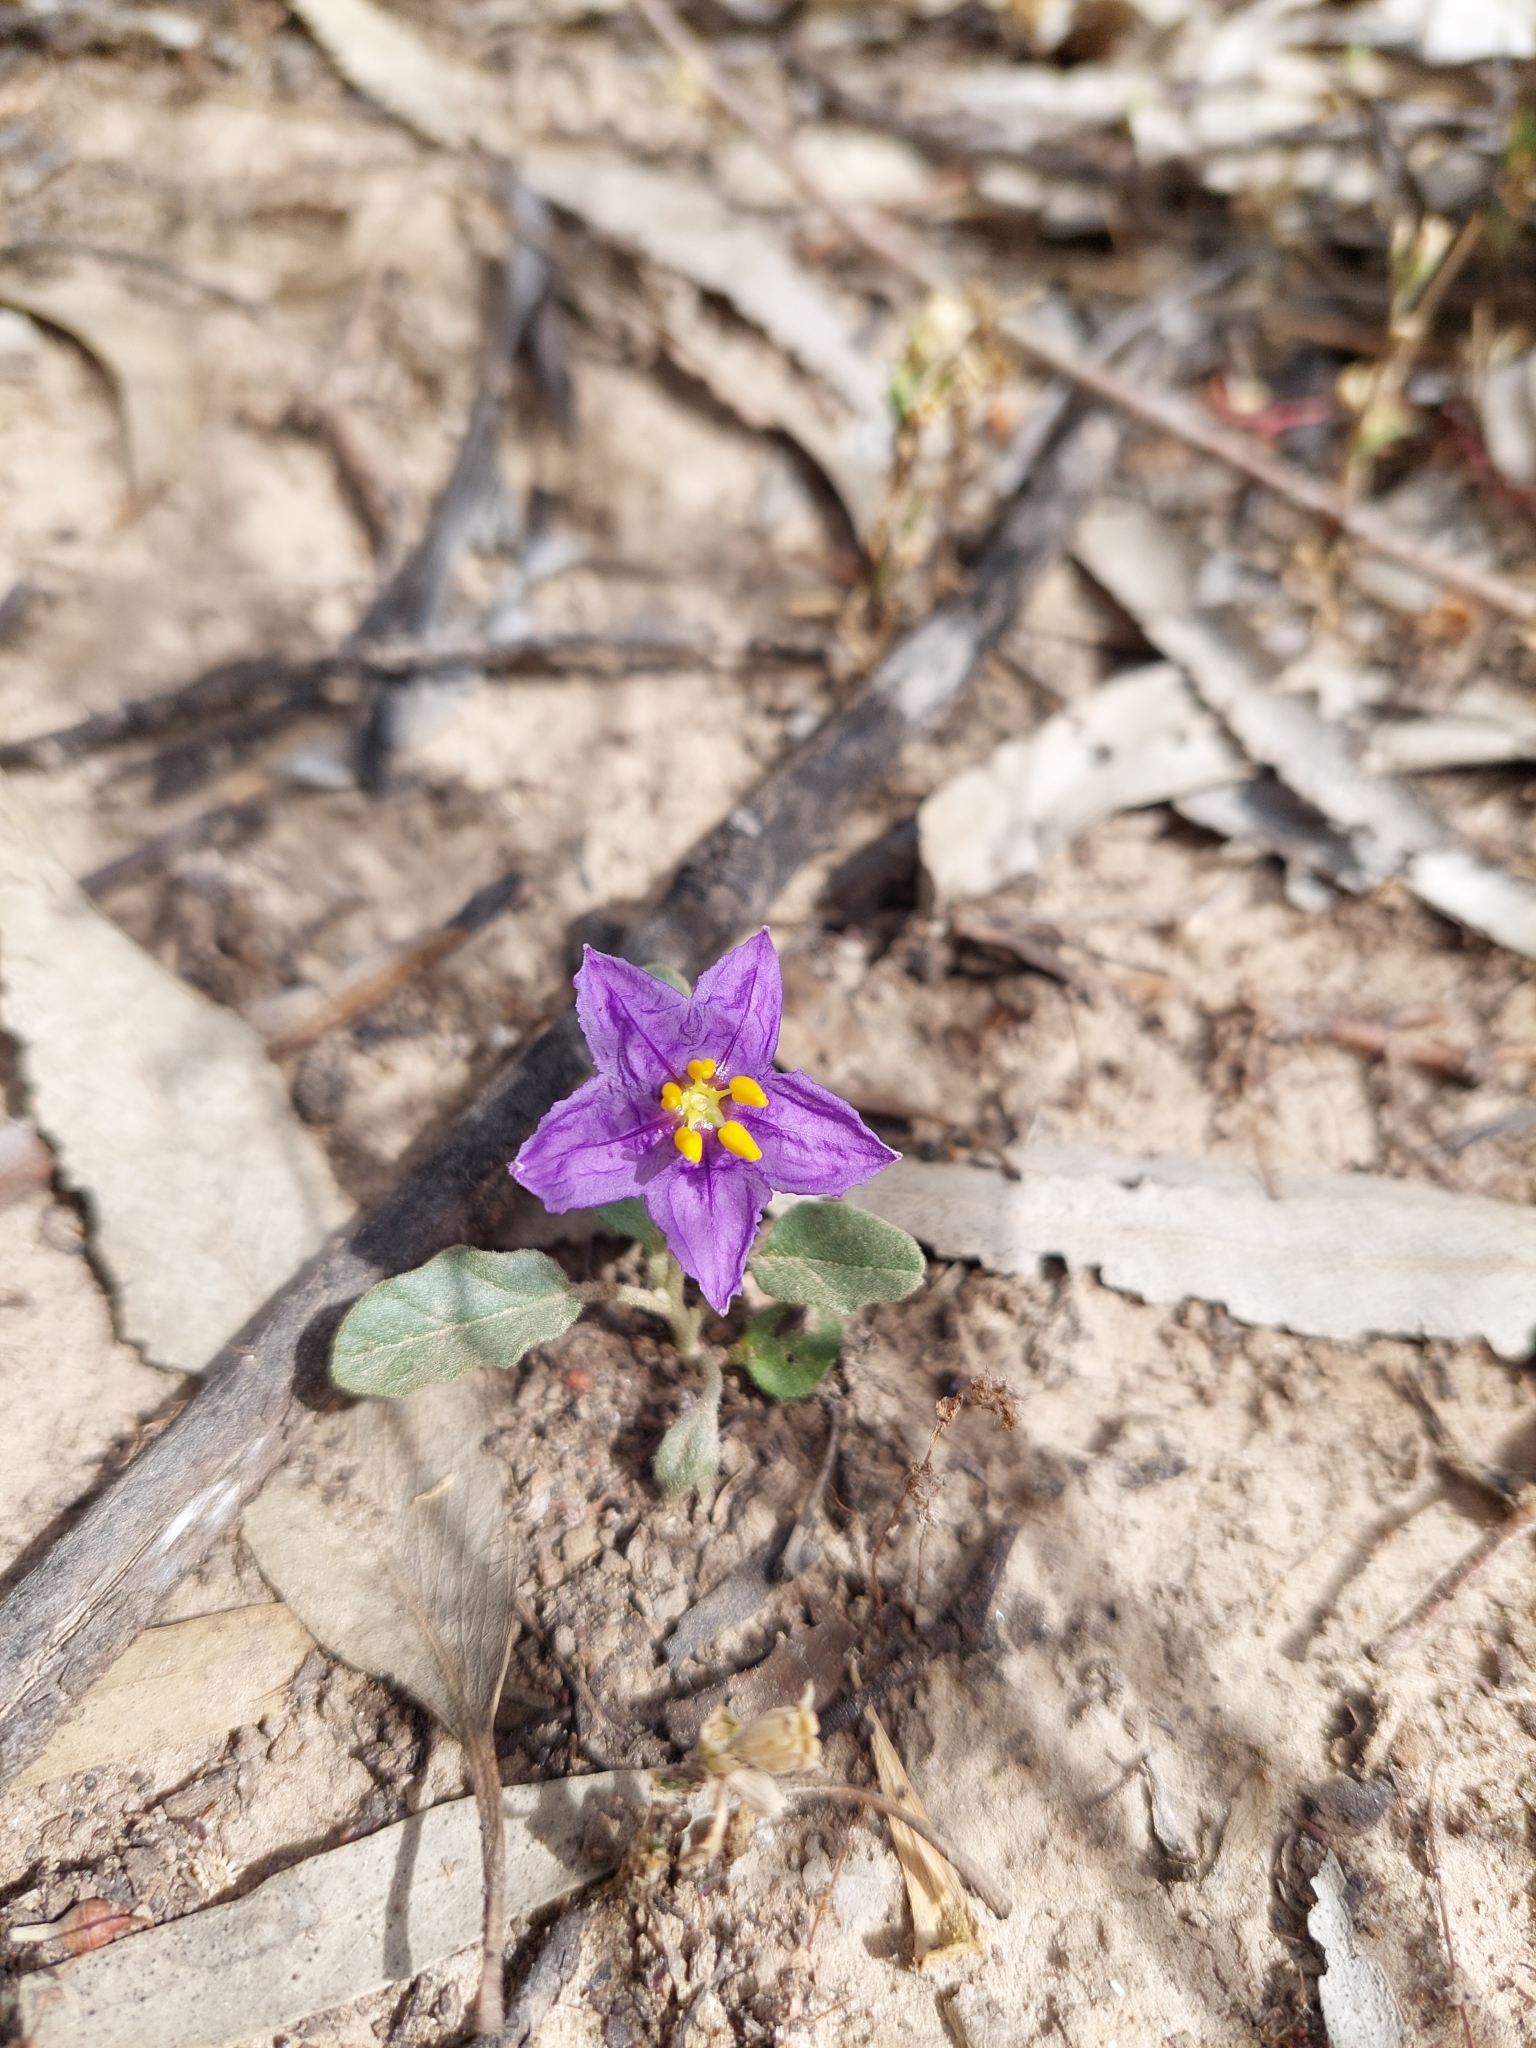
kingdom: Plantae
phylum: Tracheophyta
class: Magnoliopsida
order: Solanales
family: Solanaceae
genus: Solanum
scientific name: Solanum esuriale
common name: Wild tomato
